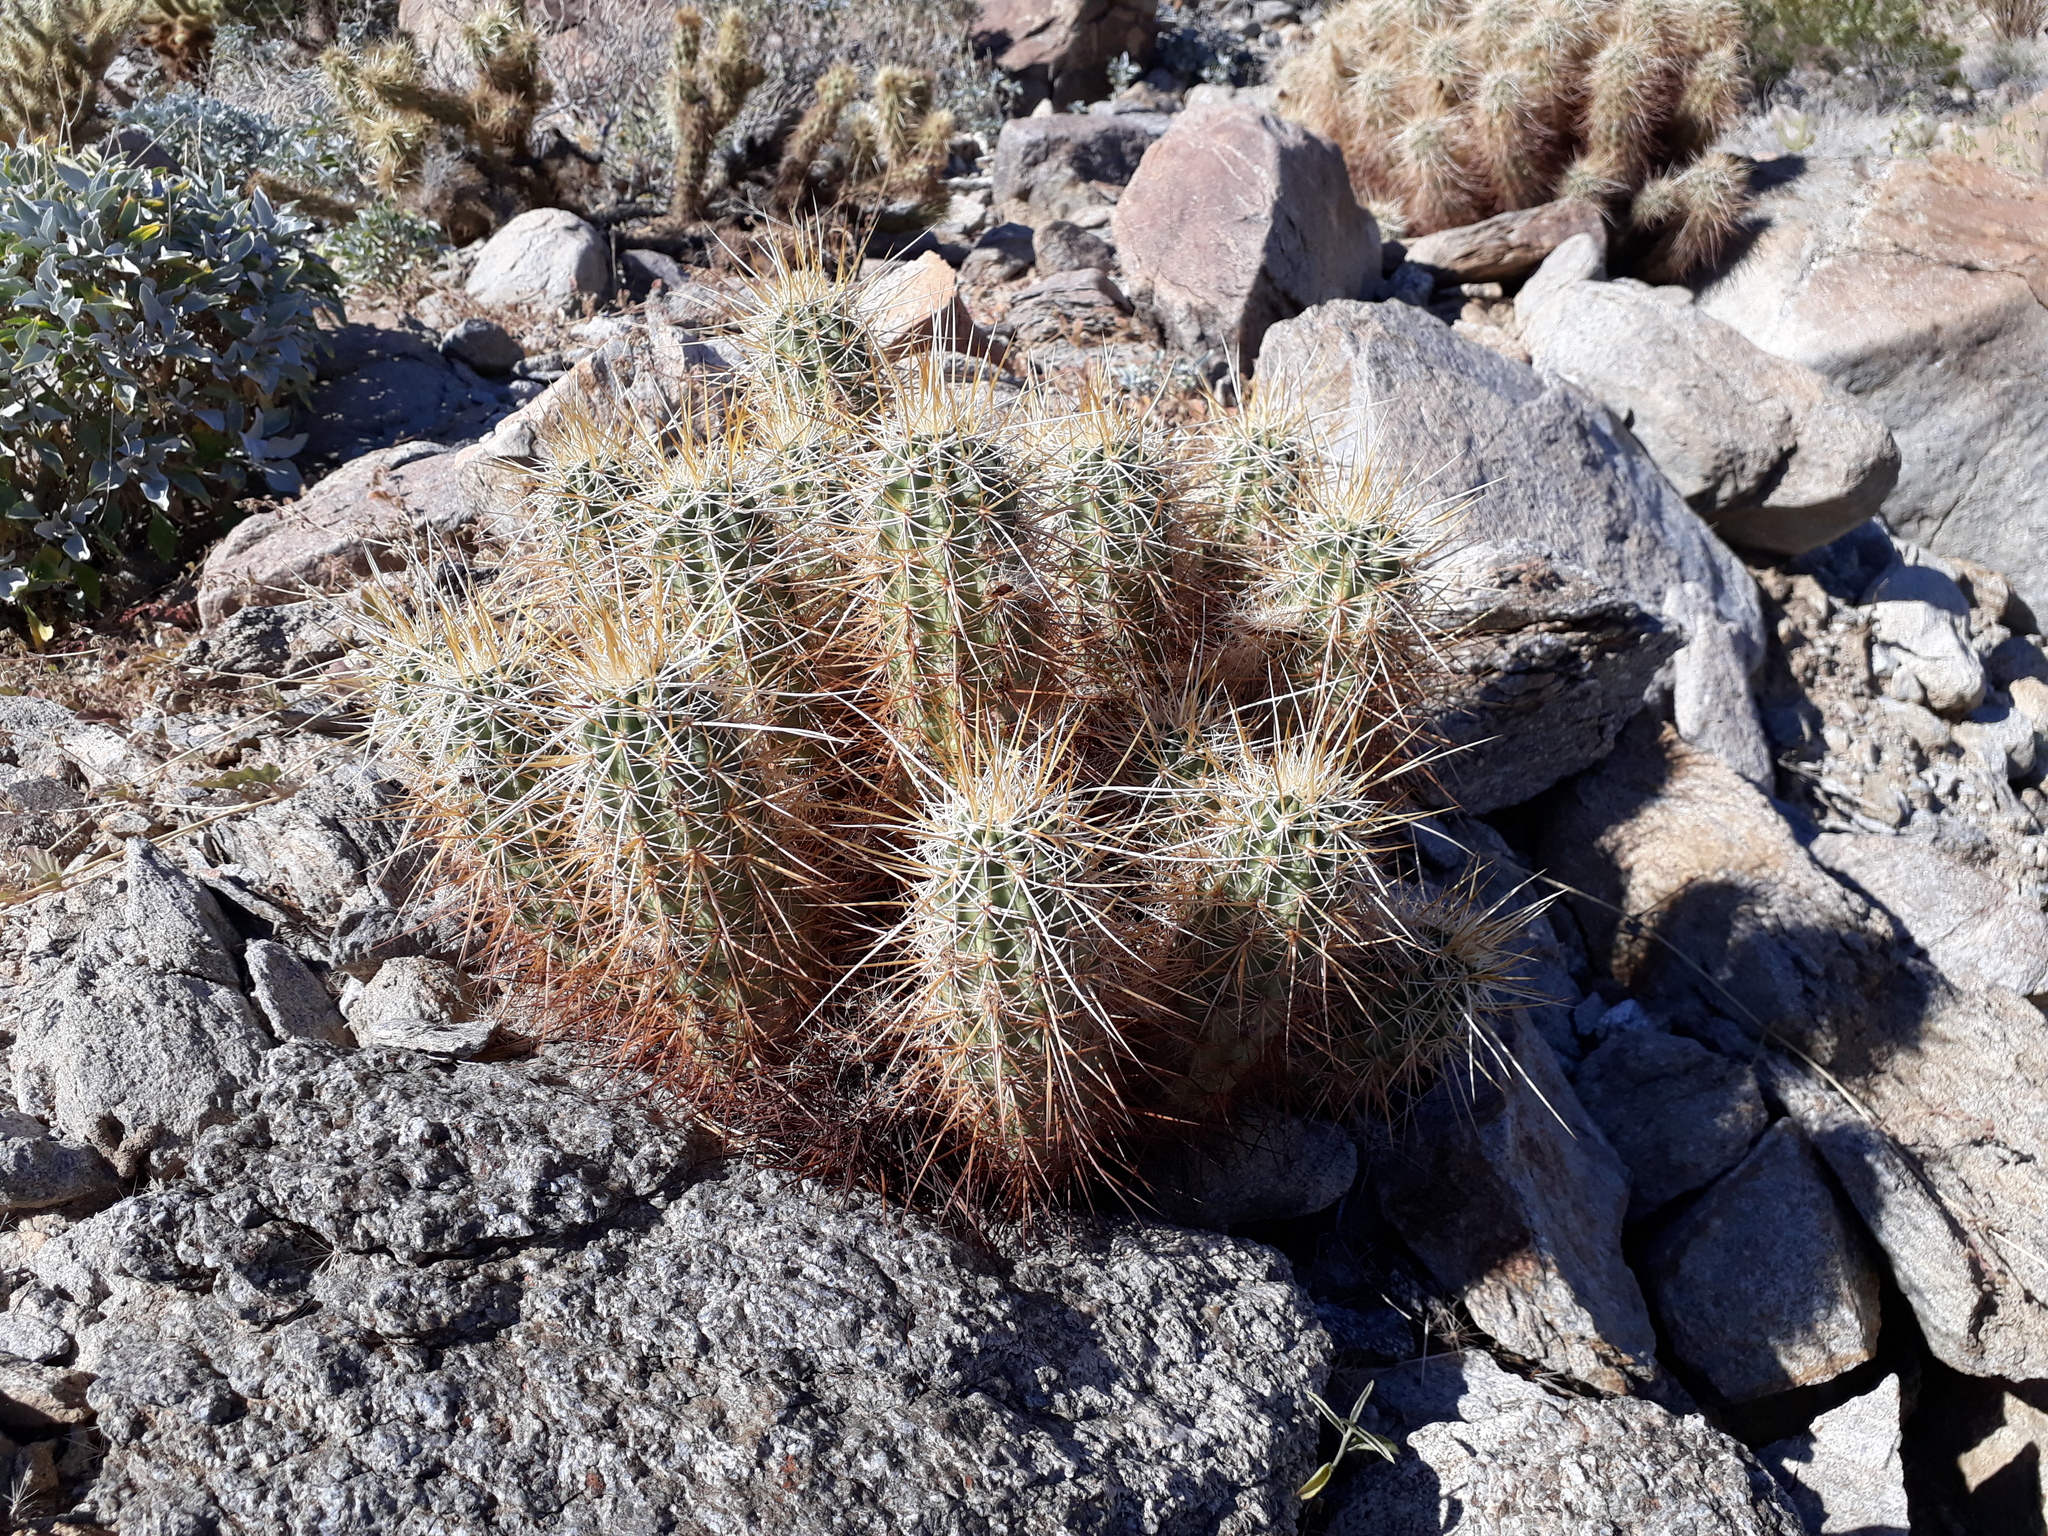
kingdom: Plantae
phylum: Tracheophyta
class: Magnoliopsida
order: Caryophyllales
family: Cactaceae
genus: Echinocereus
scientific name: Echinocereus engelmannii
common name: Engelmann's hedgehog cactus
